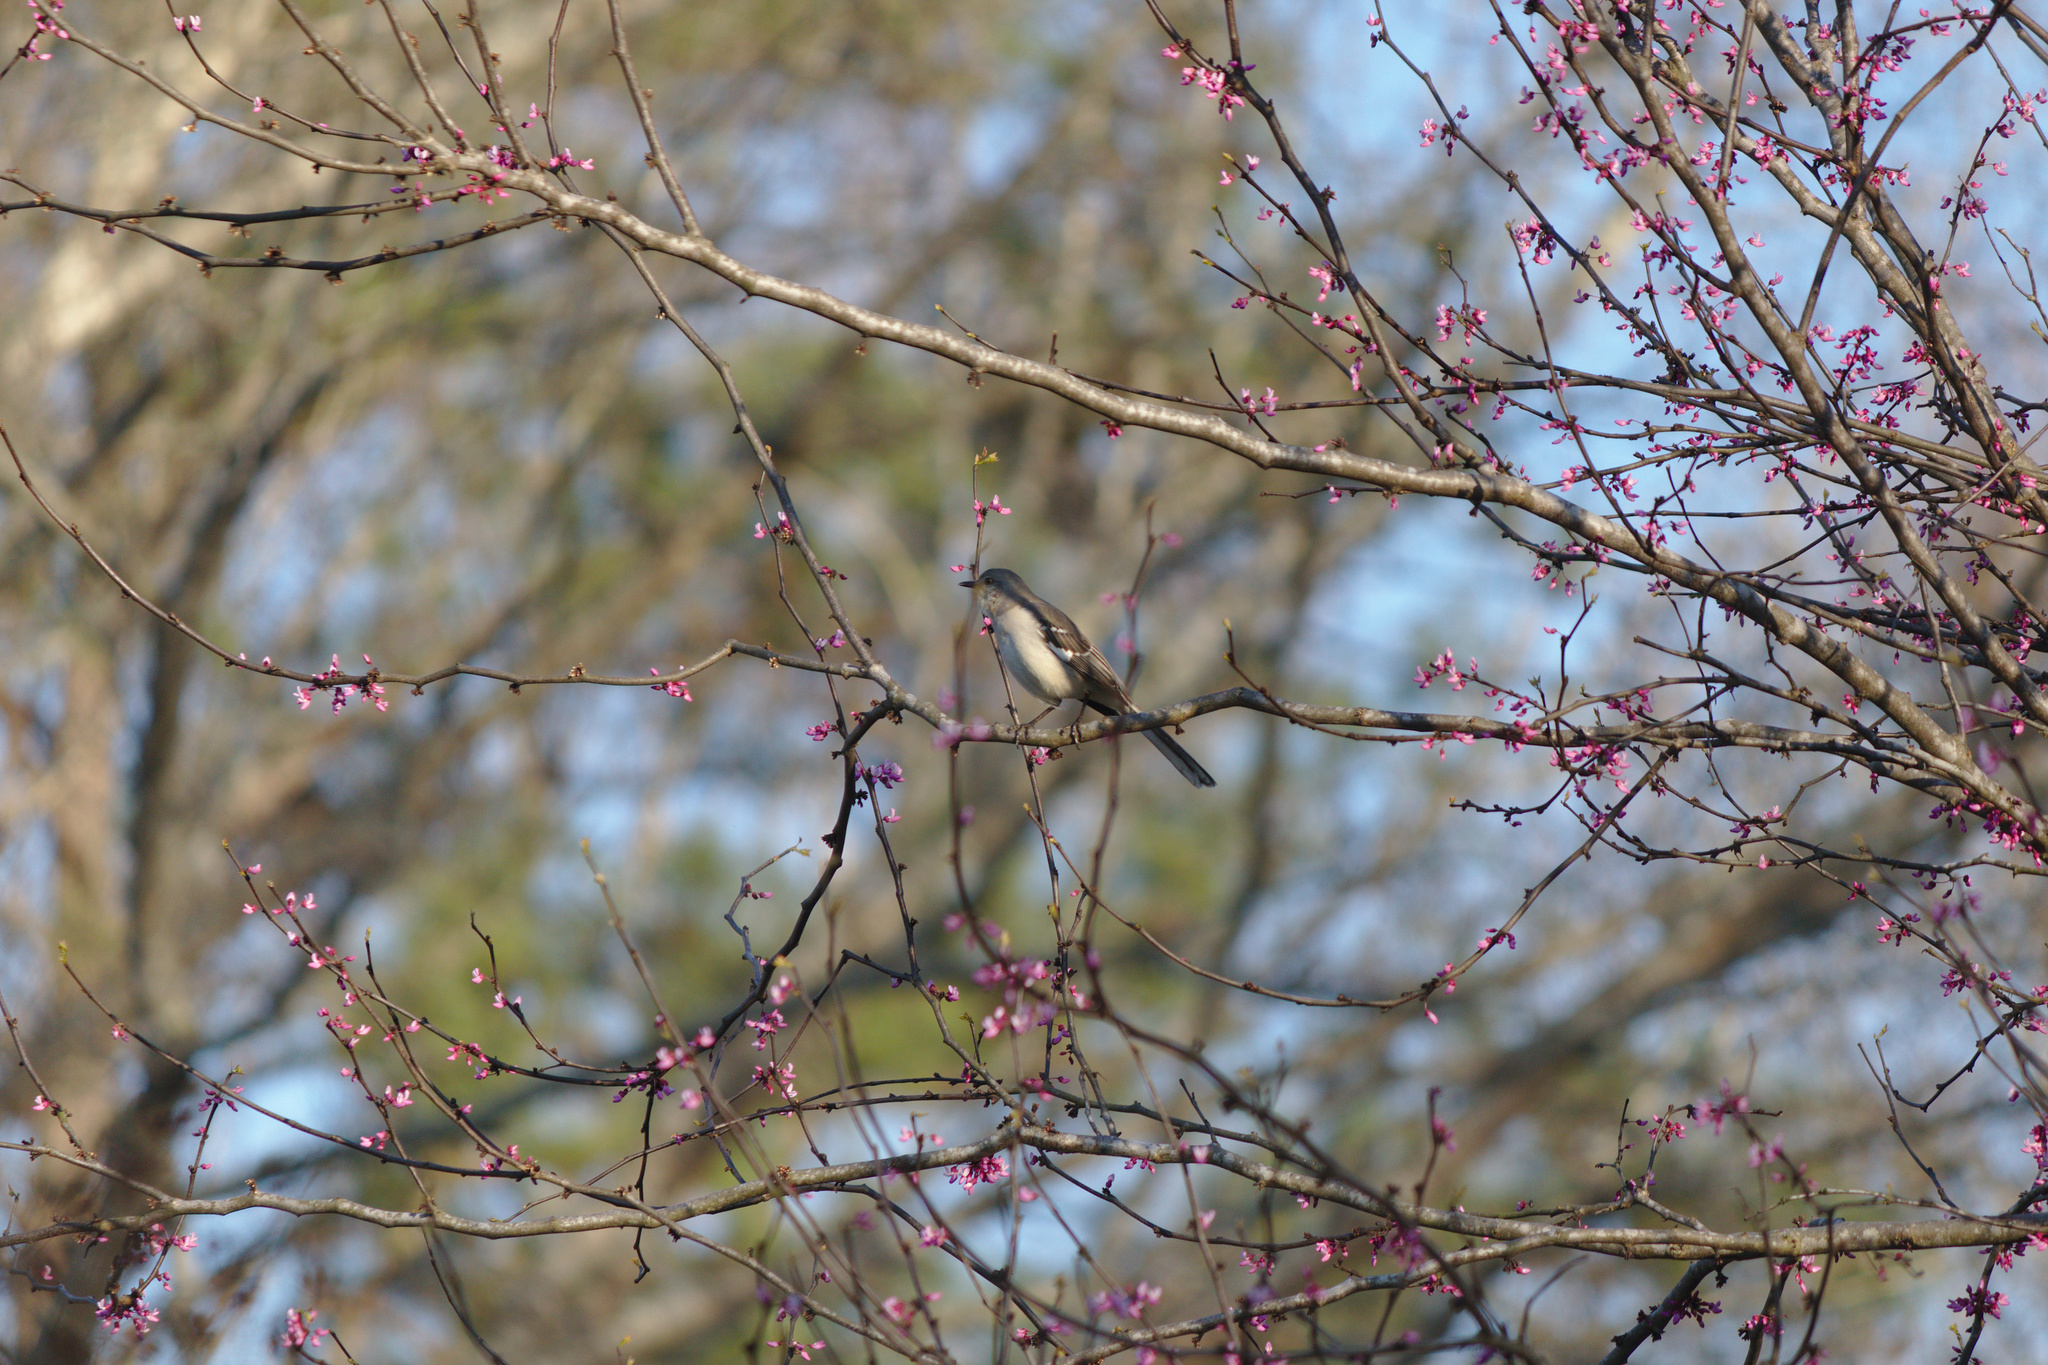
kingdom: Animalia
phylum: Chordata
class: Aves
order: Passeriformes
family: Mimidae
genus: Mimus
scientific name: Mimus polyglottos
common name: Northern mockingbird
